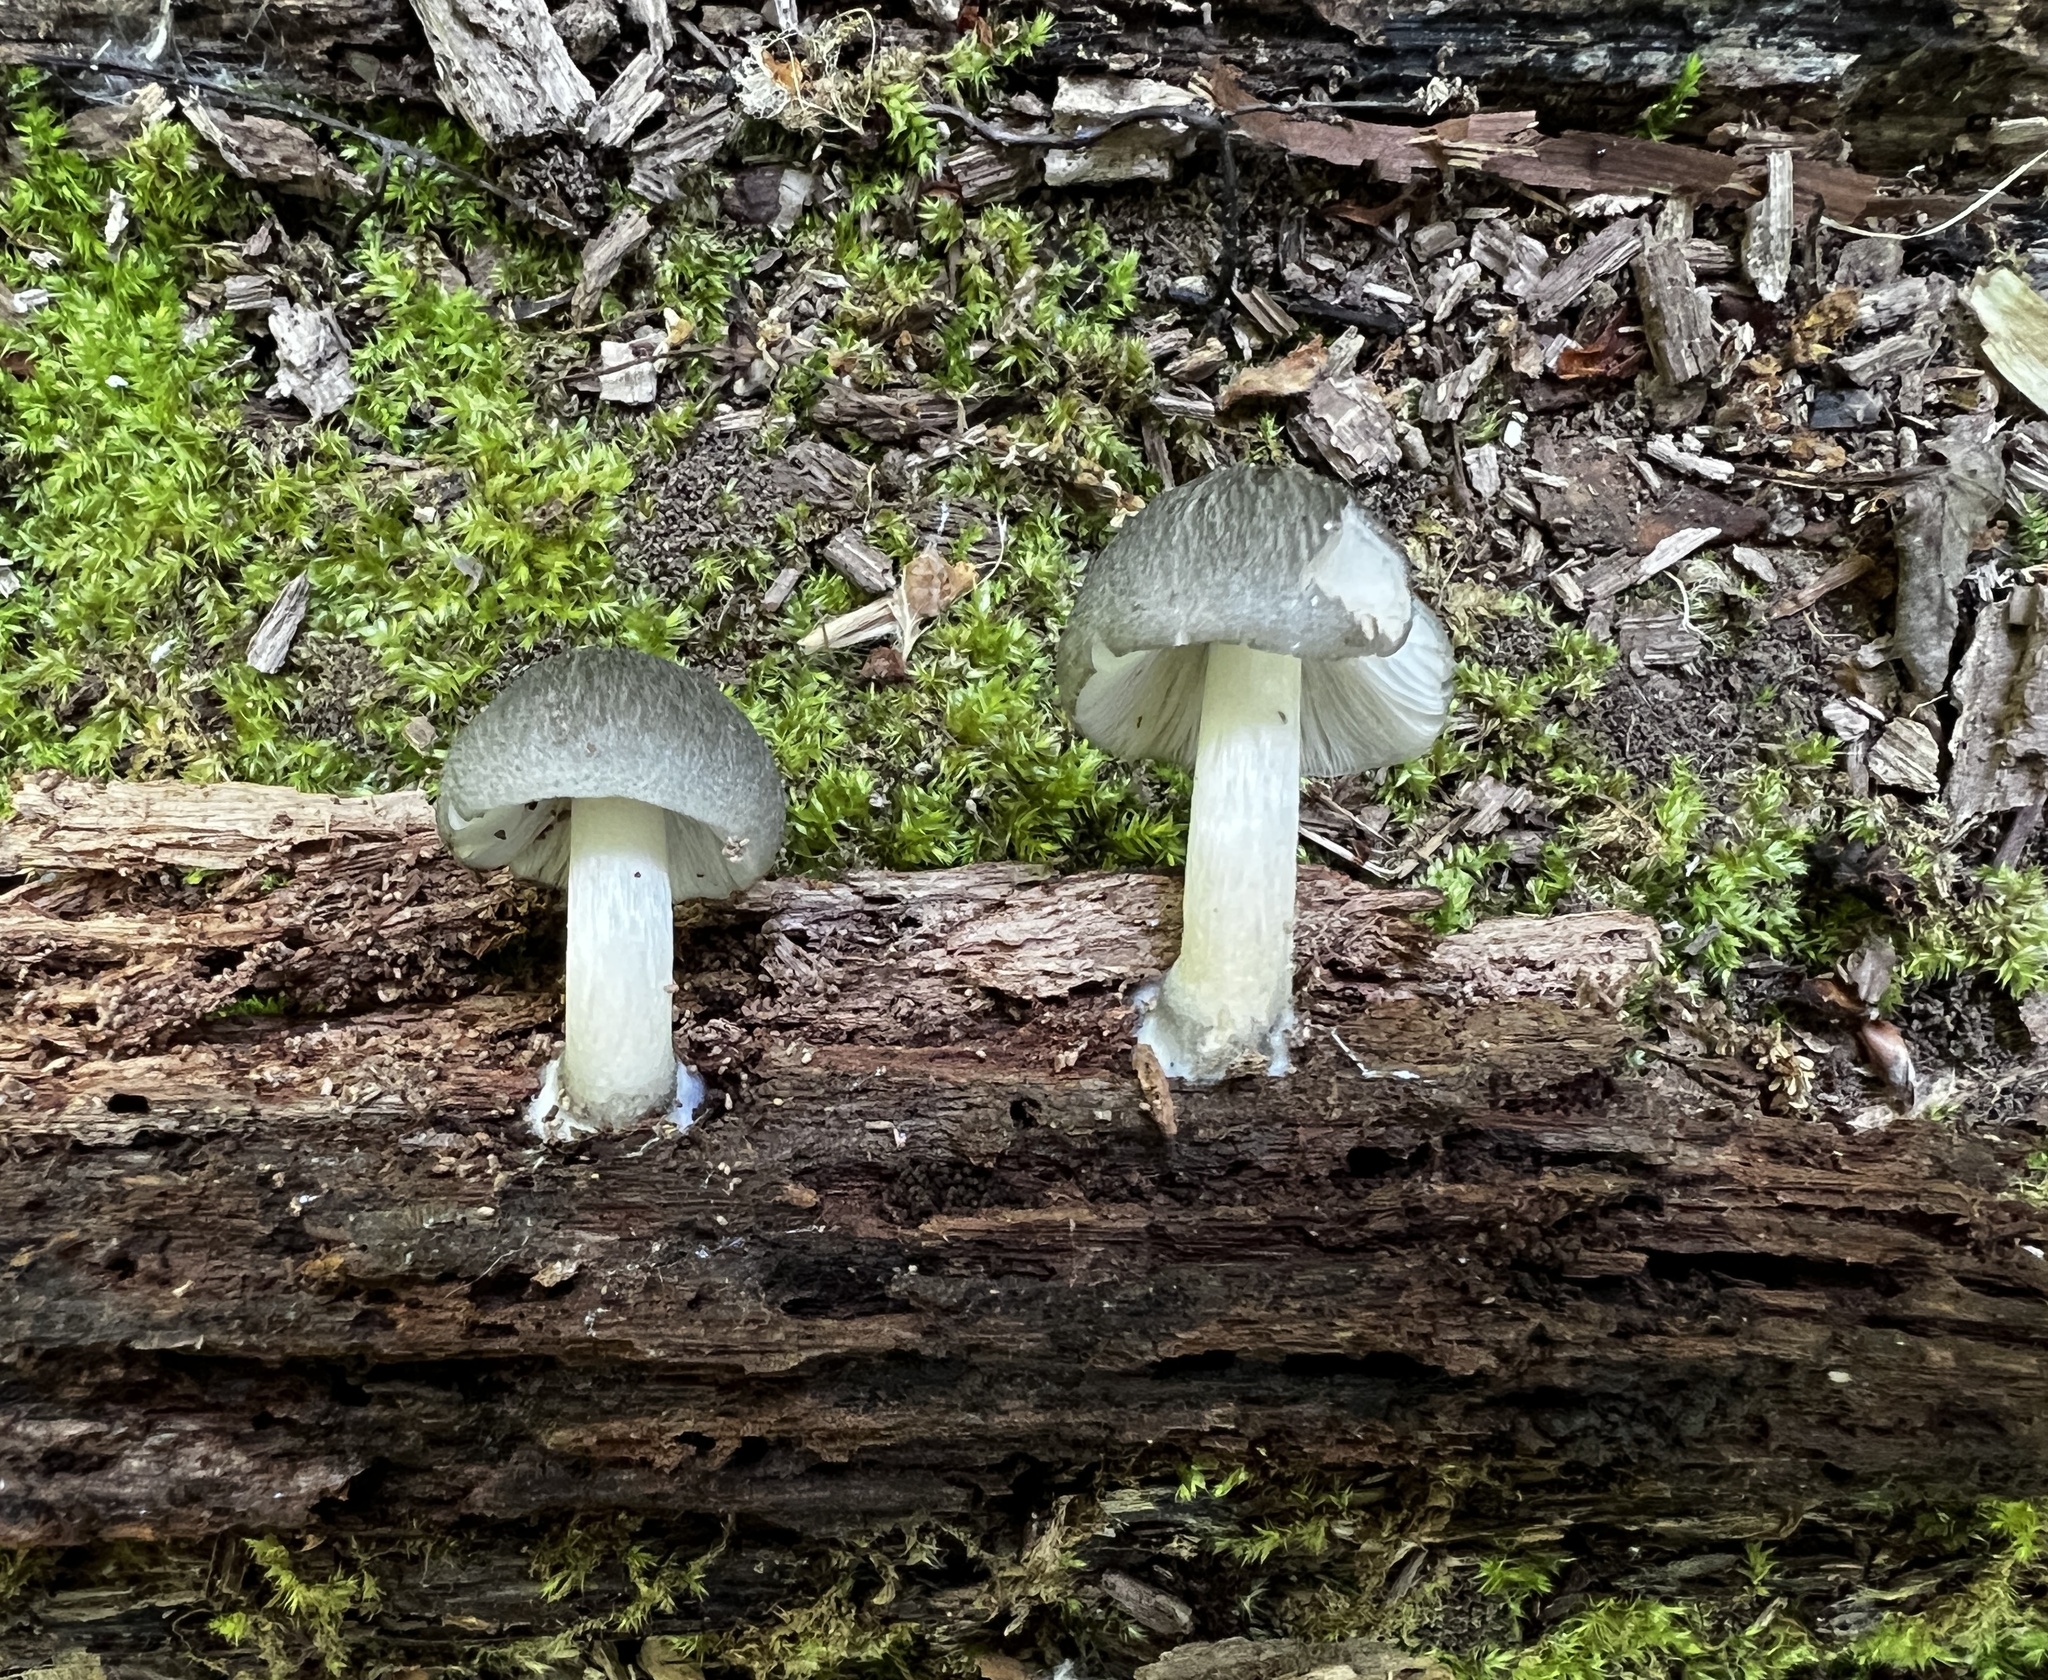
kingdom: Fungi
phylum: Basidiomycota
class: Agaricomycetes
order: Agaricales
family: Pluteaceae
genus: Pluteus
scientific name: Pluteus americanus
